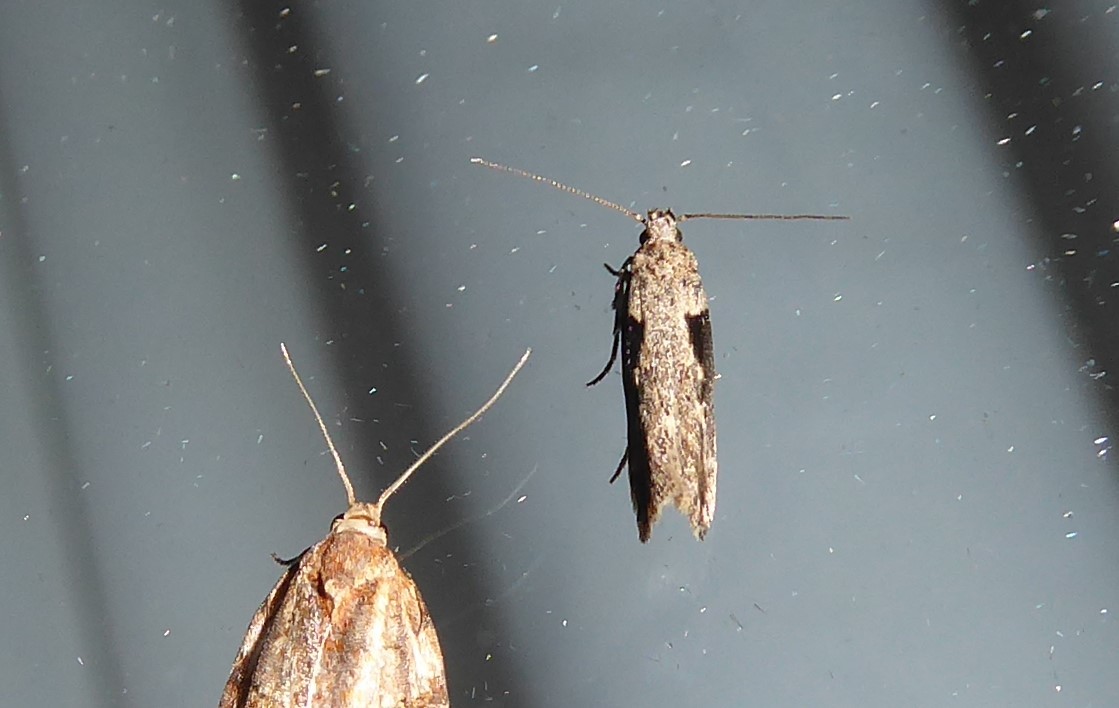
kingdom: Animalia
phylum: Arthropoda
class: Insecta
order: Lepidoptera
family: Gelechiidae
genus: Symmetrischema
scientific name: Symmetrischema tangolias
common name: Moth
